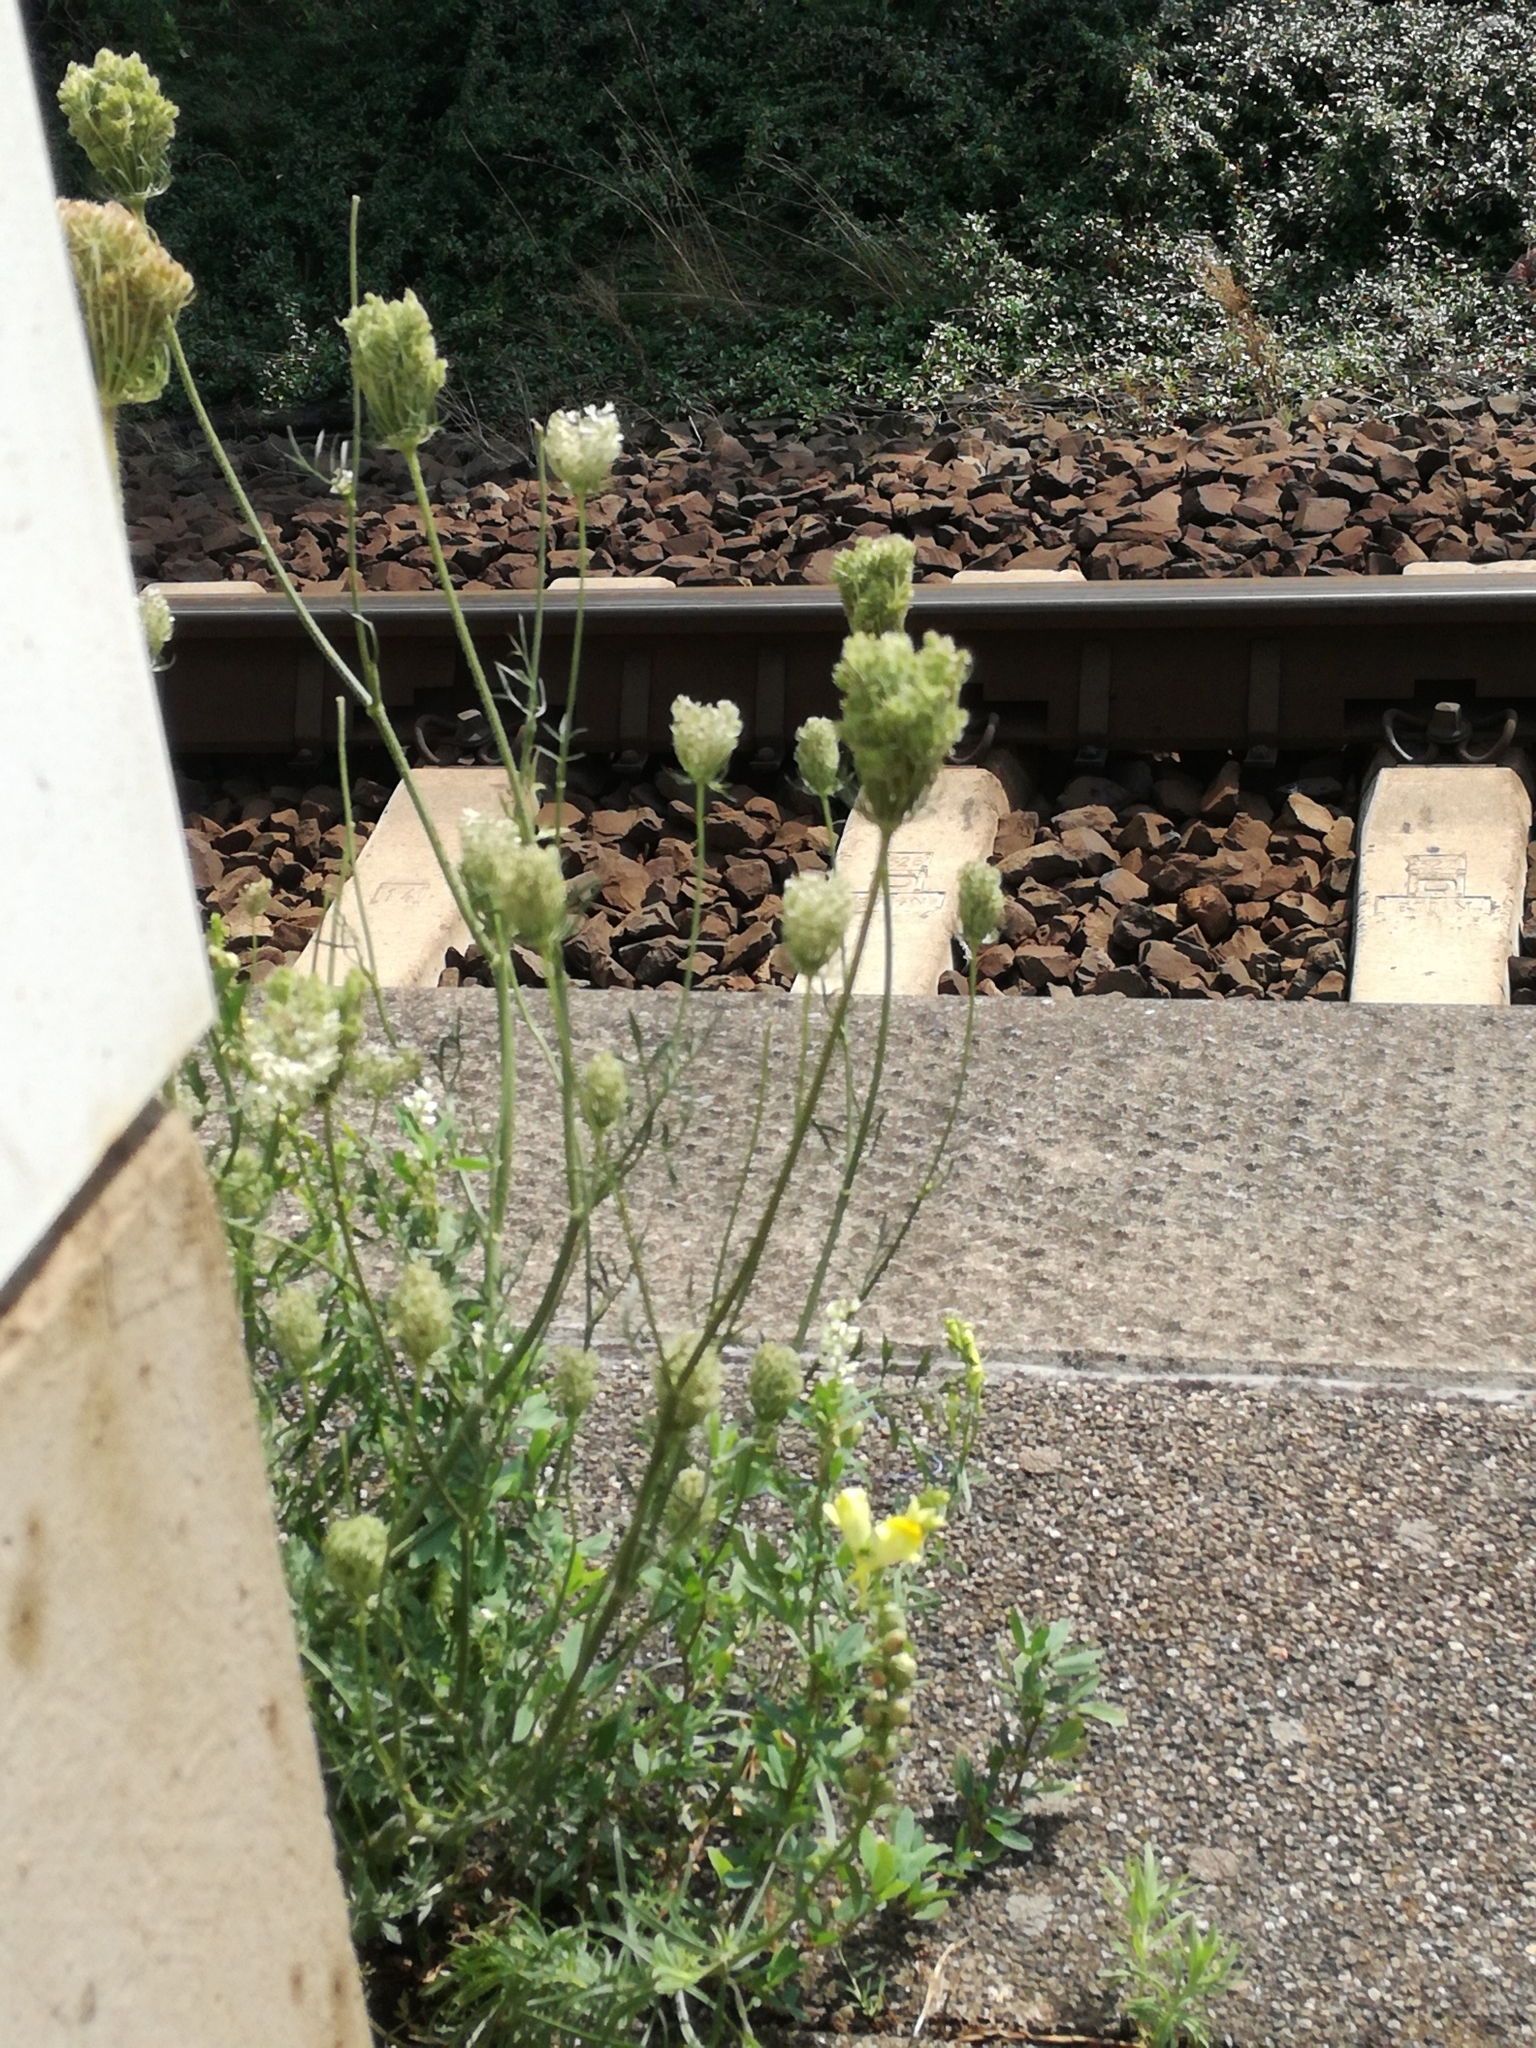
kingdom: Plantae
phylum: Tracheophyta
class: Magnoliopsida
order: Apiales
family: Apiaceae
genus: Daucus
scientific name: Daucus carota
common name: Wild carrot
